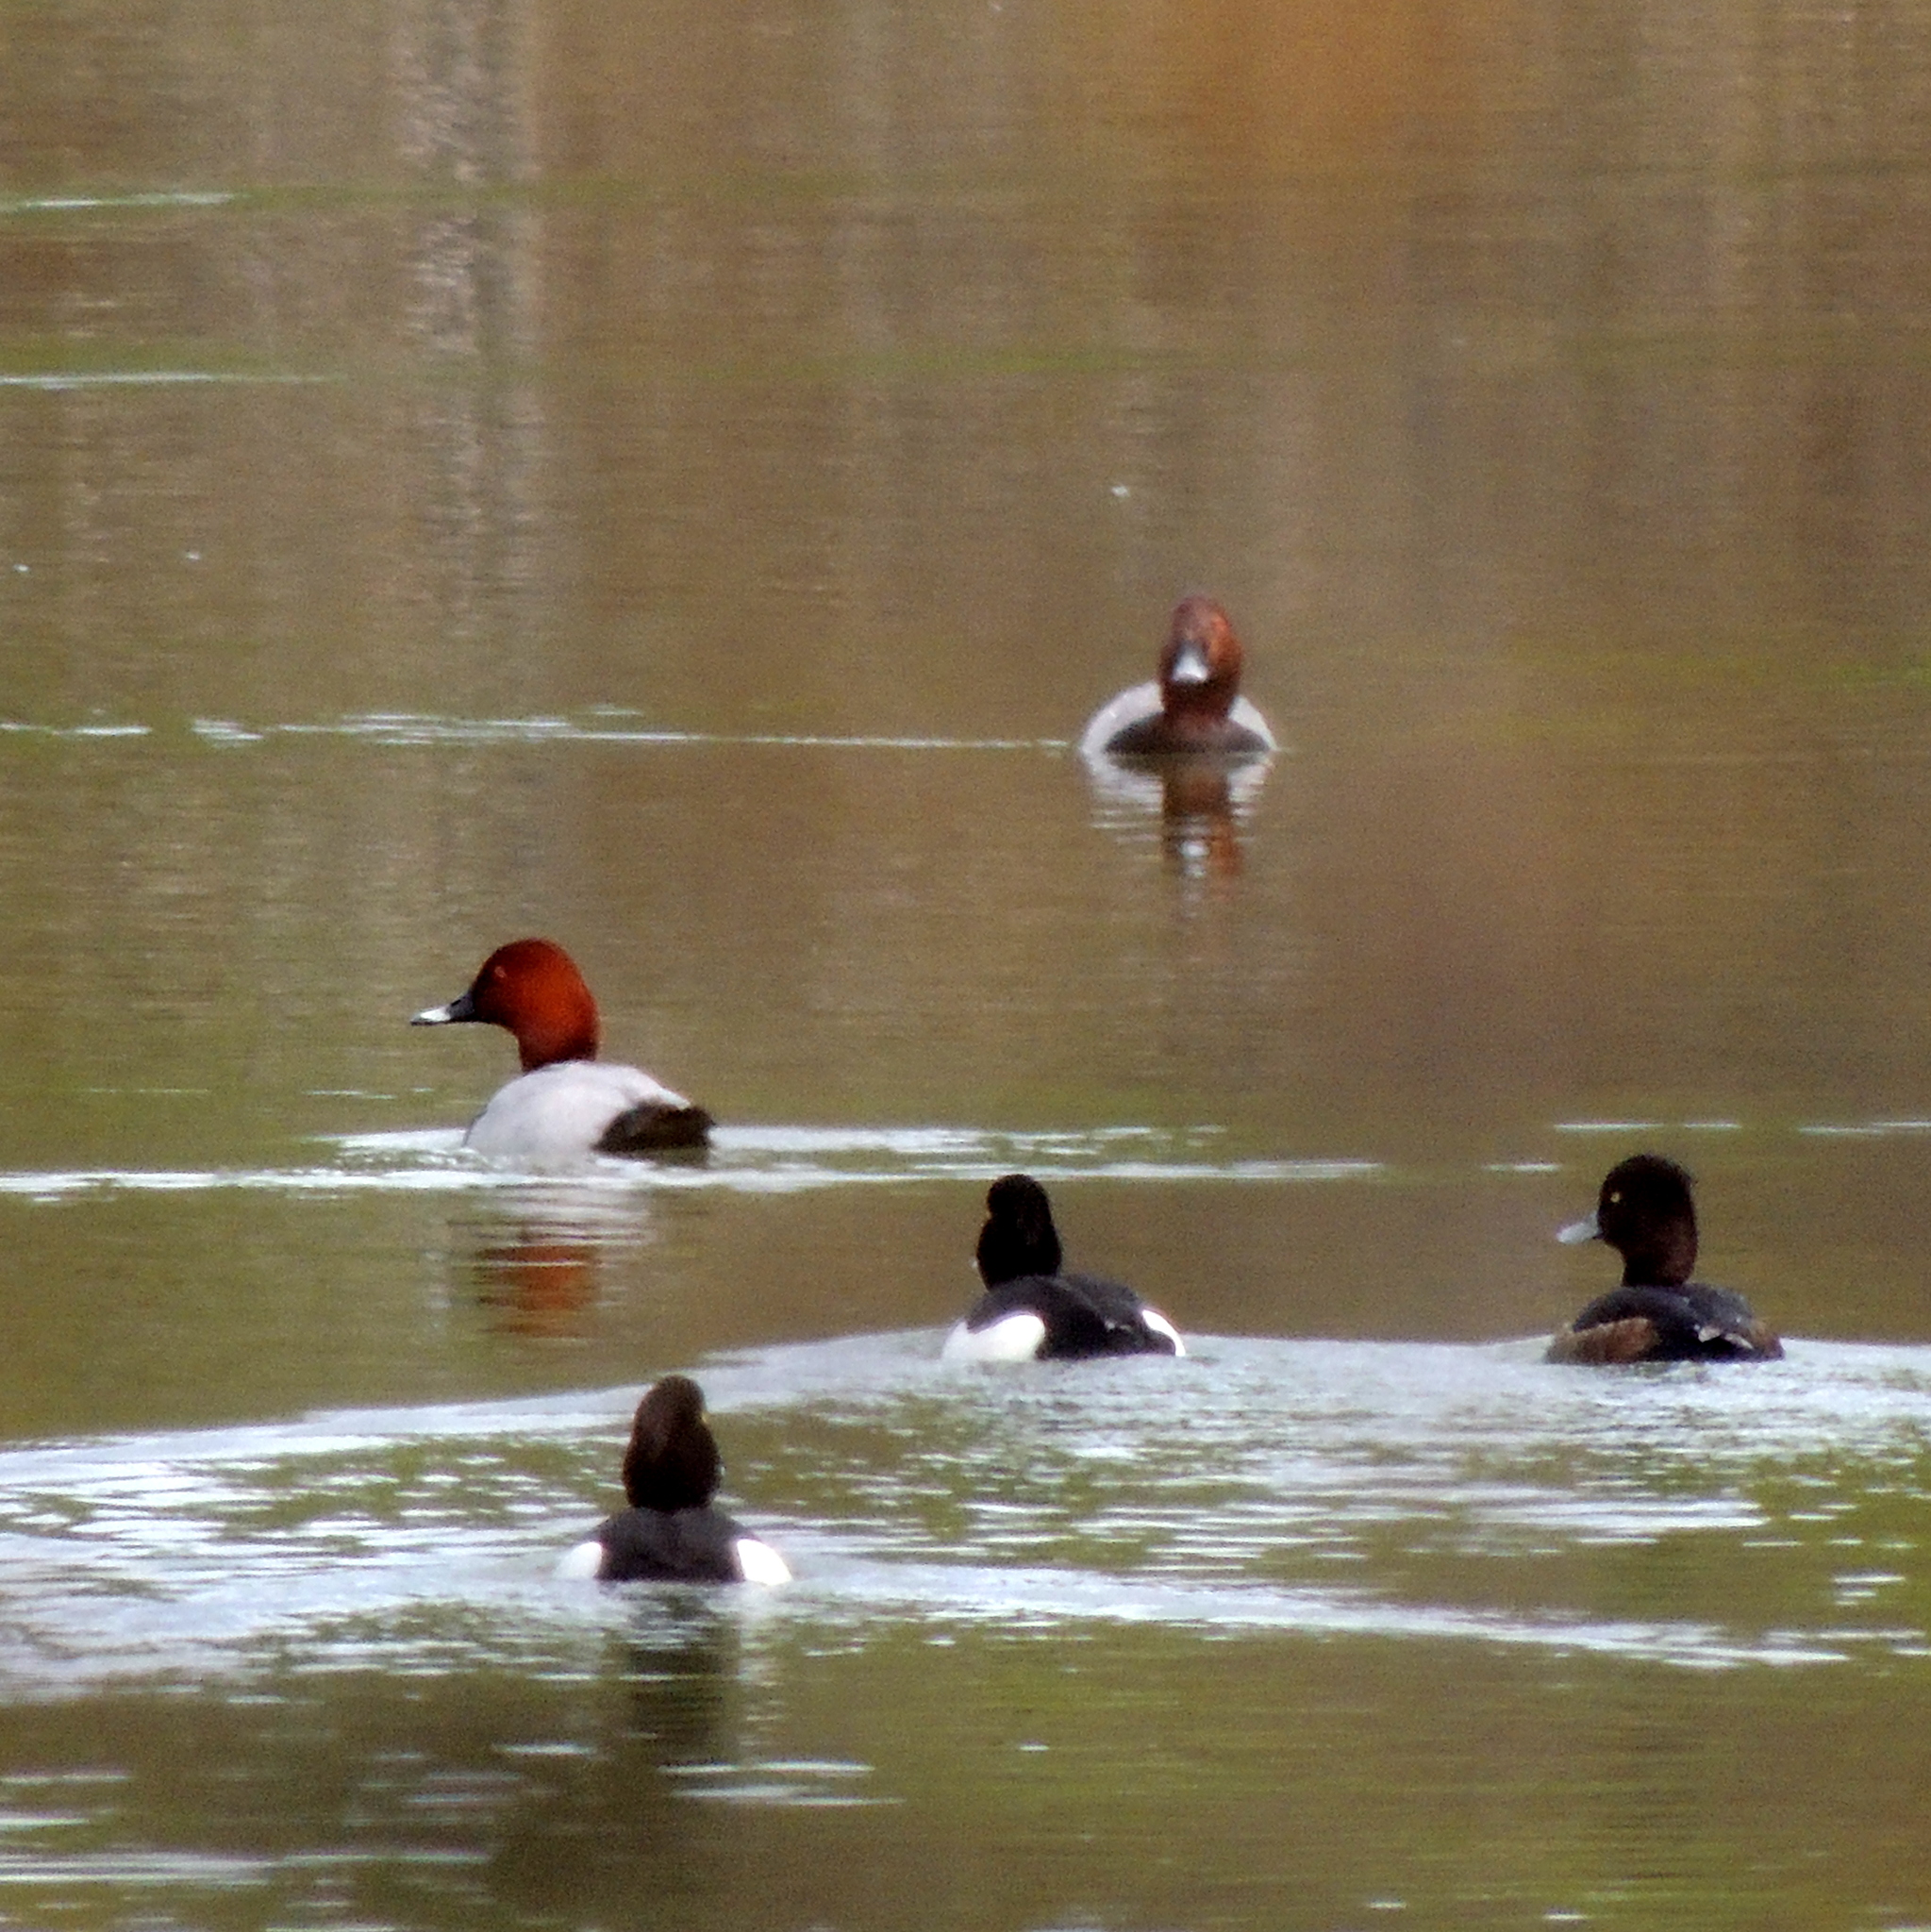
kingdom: Animalia
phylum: Chordata
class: Aves
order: Anseriformes
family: Anatidae
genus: Aythya
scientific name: Aythya ferina
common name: Common pochard
